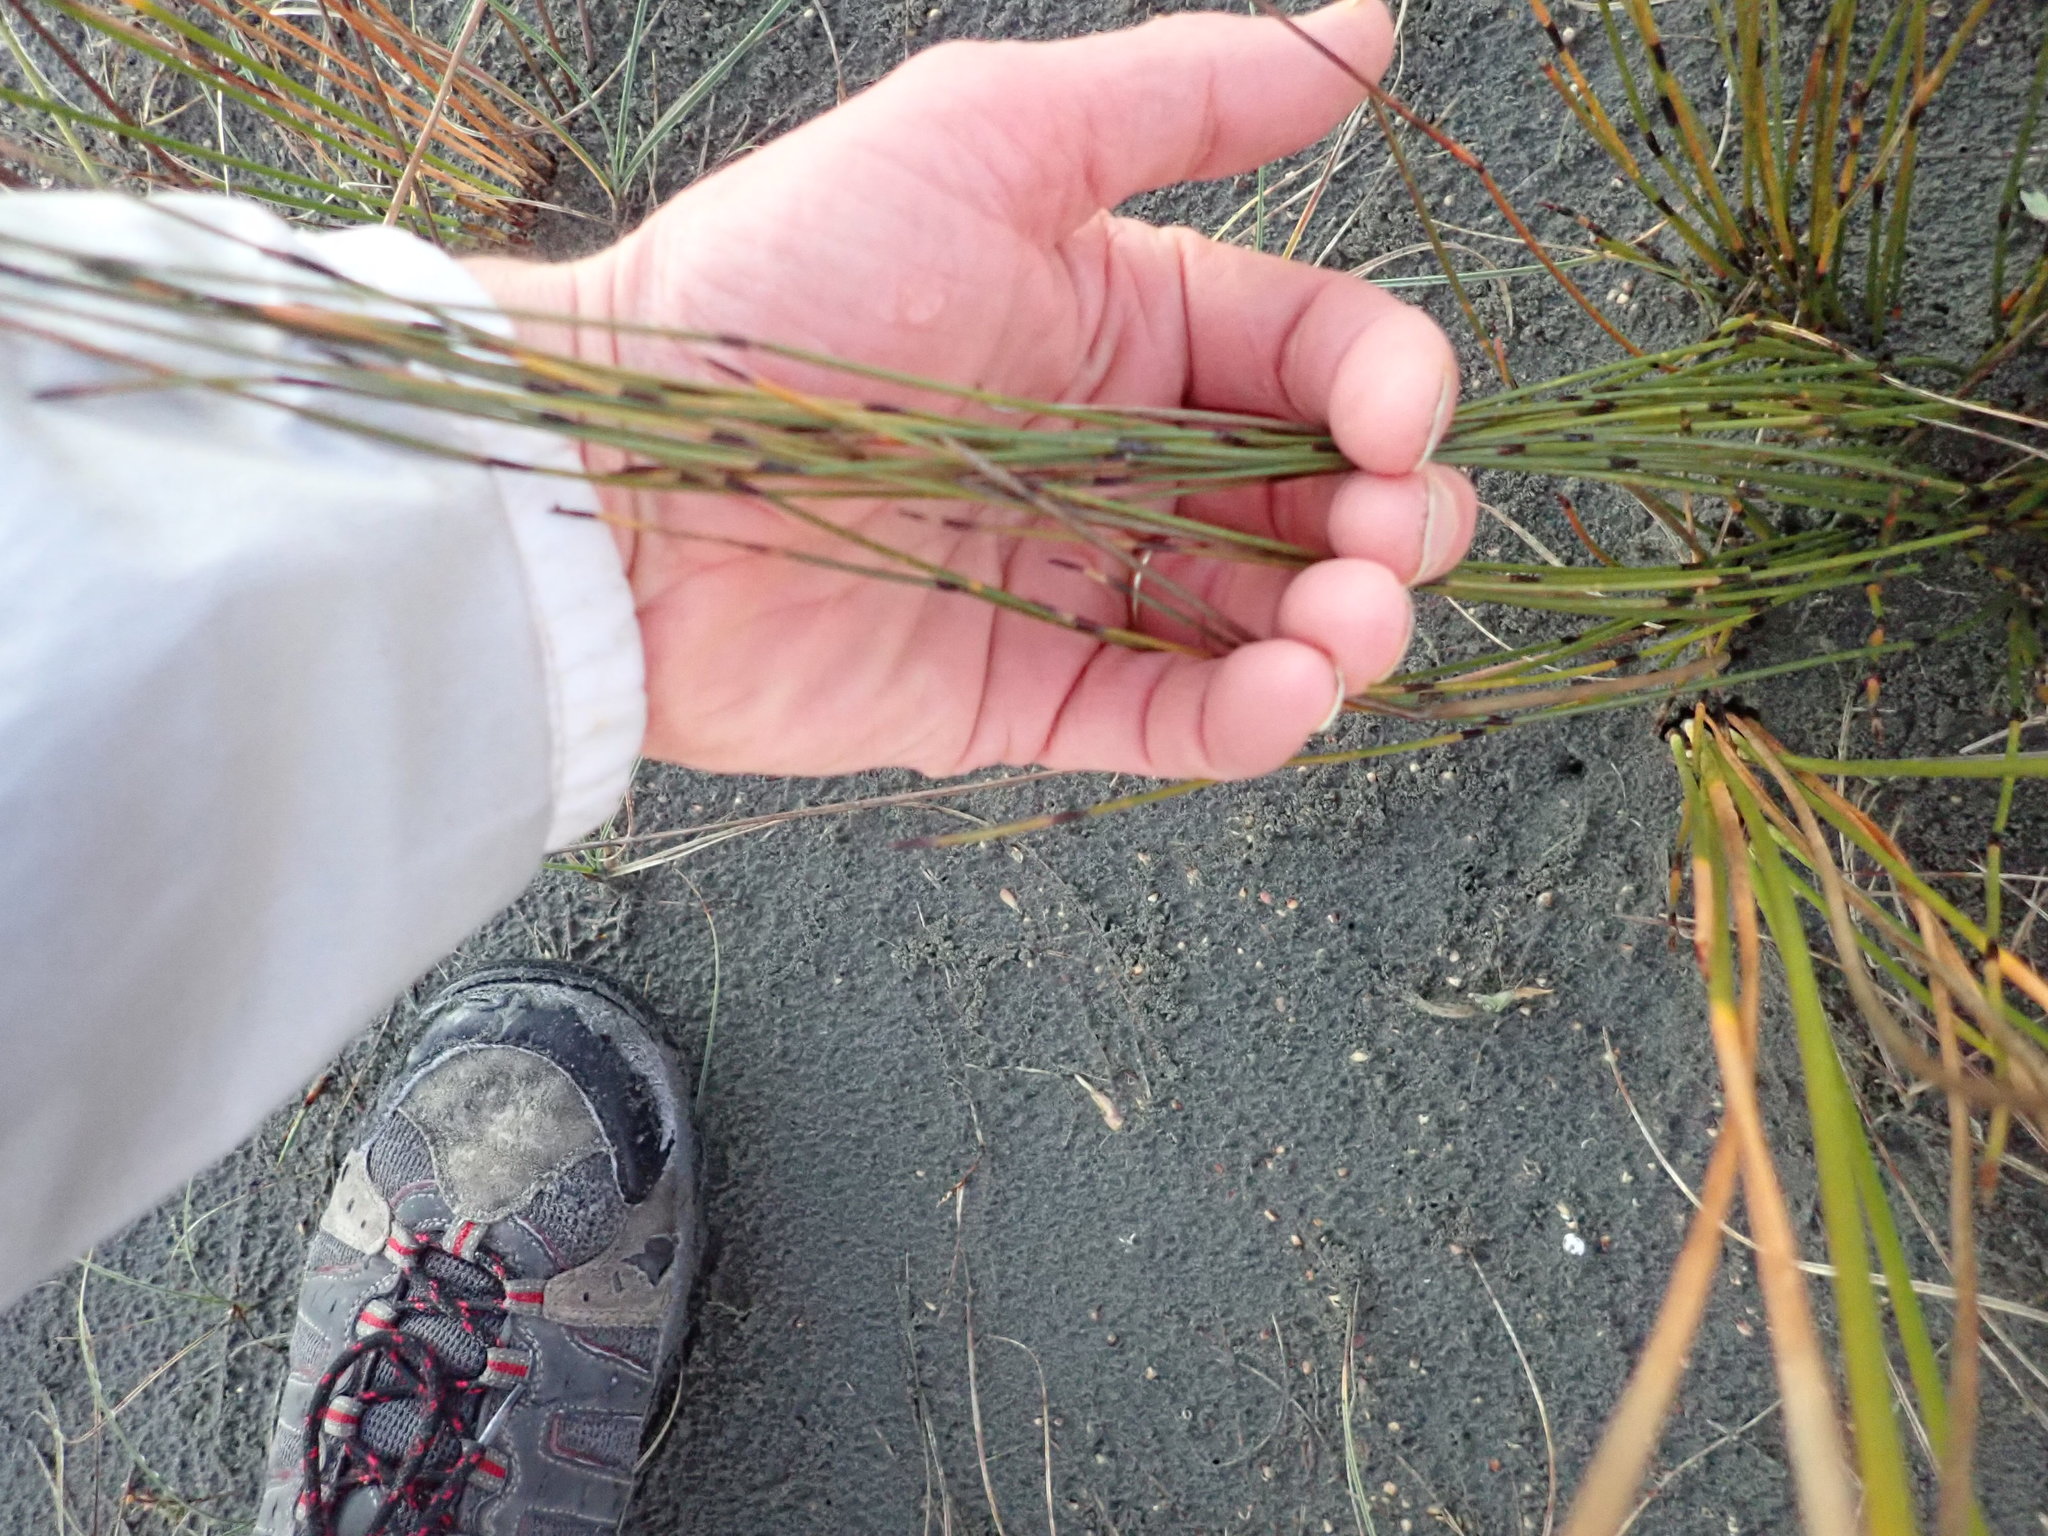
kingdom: Plantae
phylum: Tracheophyta
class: Liliopsida
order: Poales
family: Restionaceae
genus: Apodasmia
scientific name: Apodasmia similis
